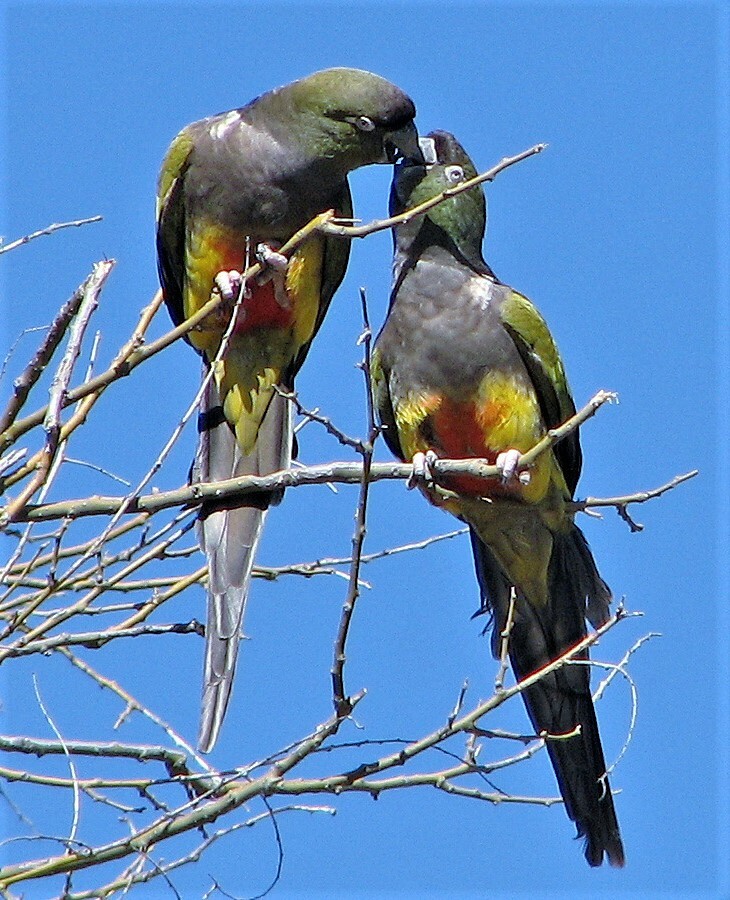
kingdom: Animalia
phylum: Chordata
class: Aves
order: Psittaciformes
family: Psittacidae
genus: Cyanoliseus
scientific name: Cyanoliseus patagonus
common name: Burrowing parrot
